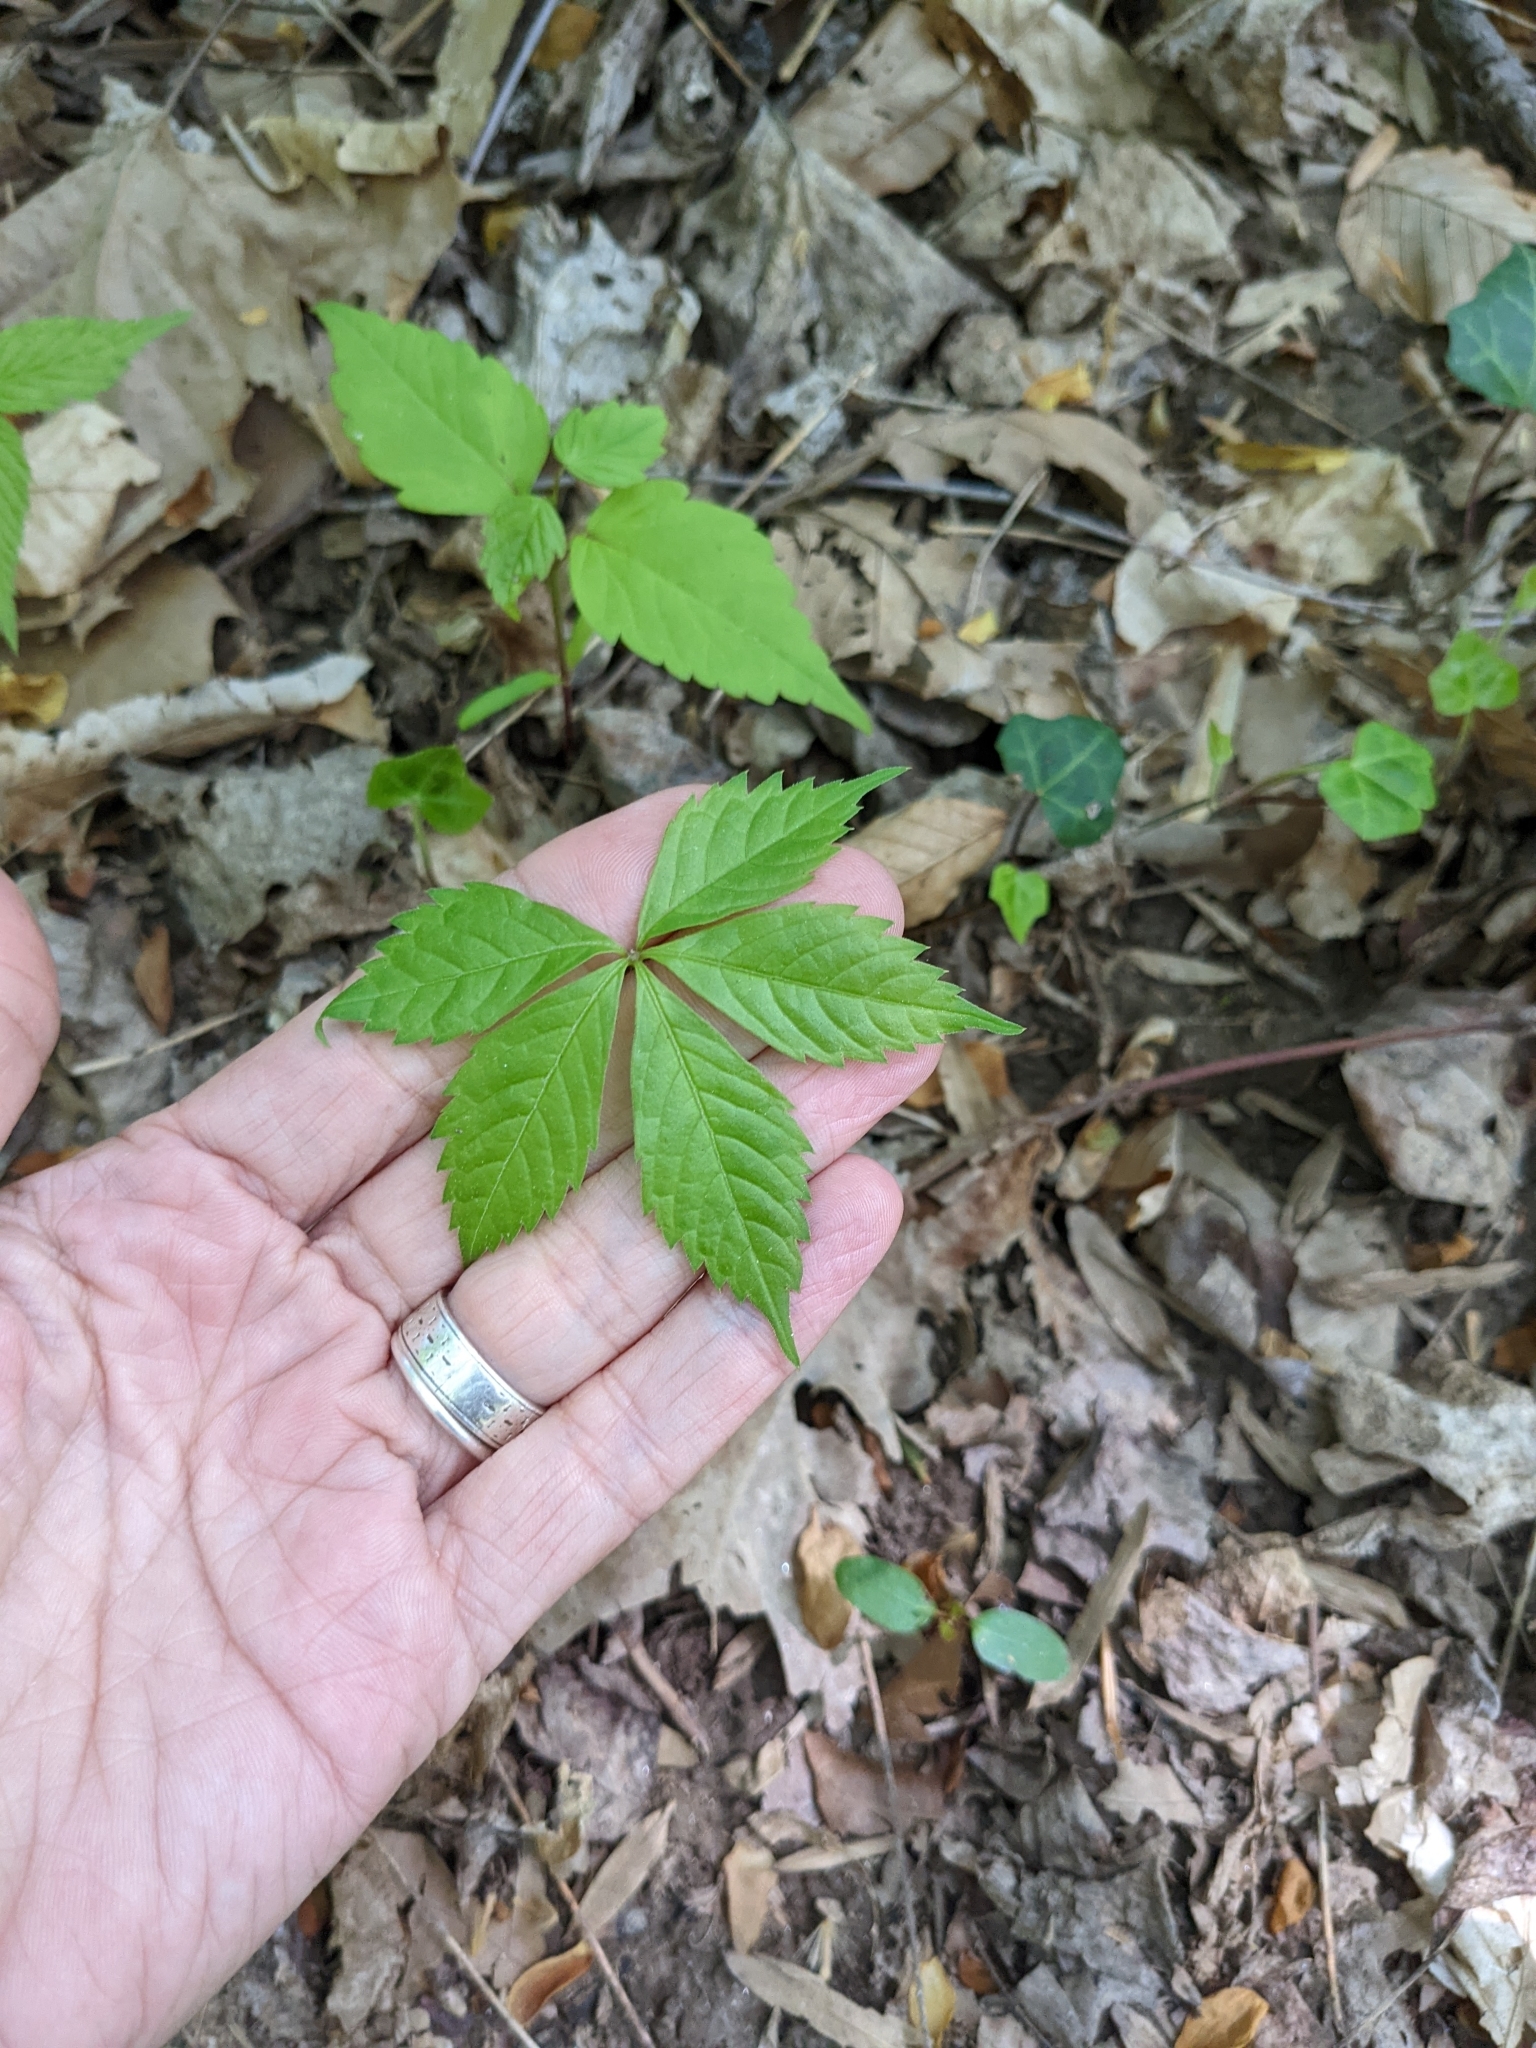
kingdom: Plantae
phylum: Tracheophyta
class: Magnoliopsida
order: Vitales
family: Vitaceae
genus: Parthenocissus
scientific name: Parthenocissus quinquefolia
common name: Virginia-creeper
